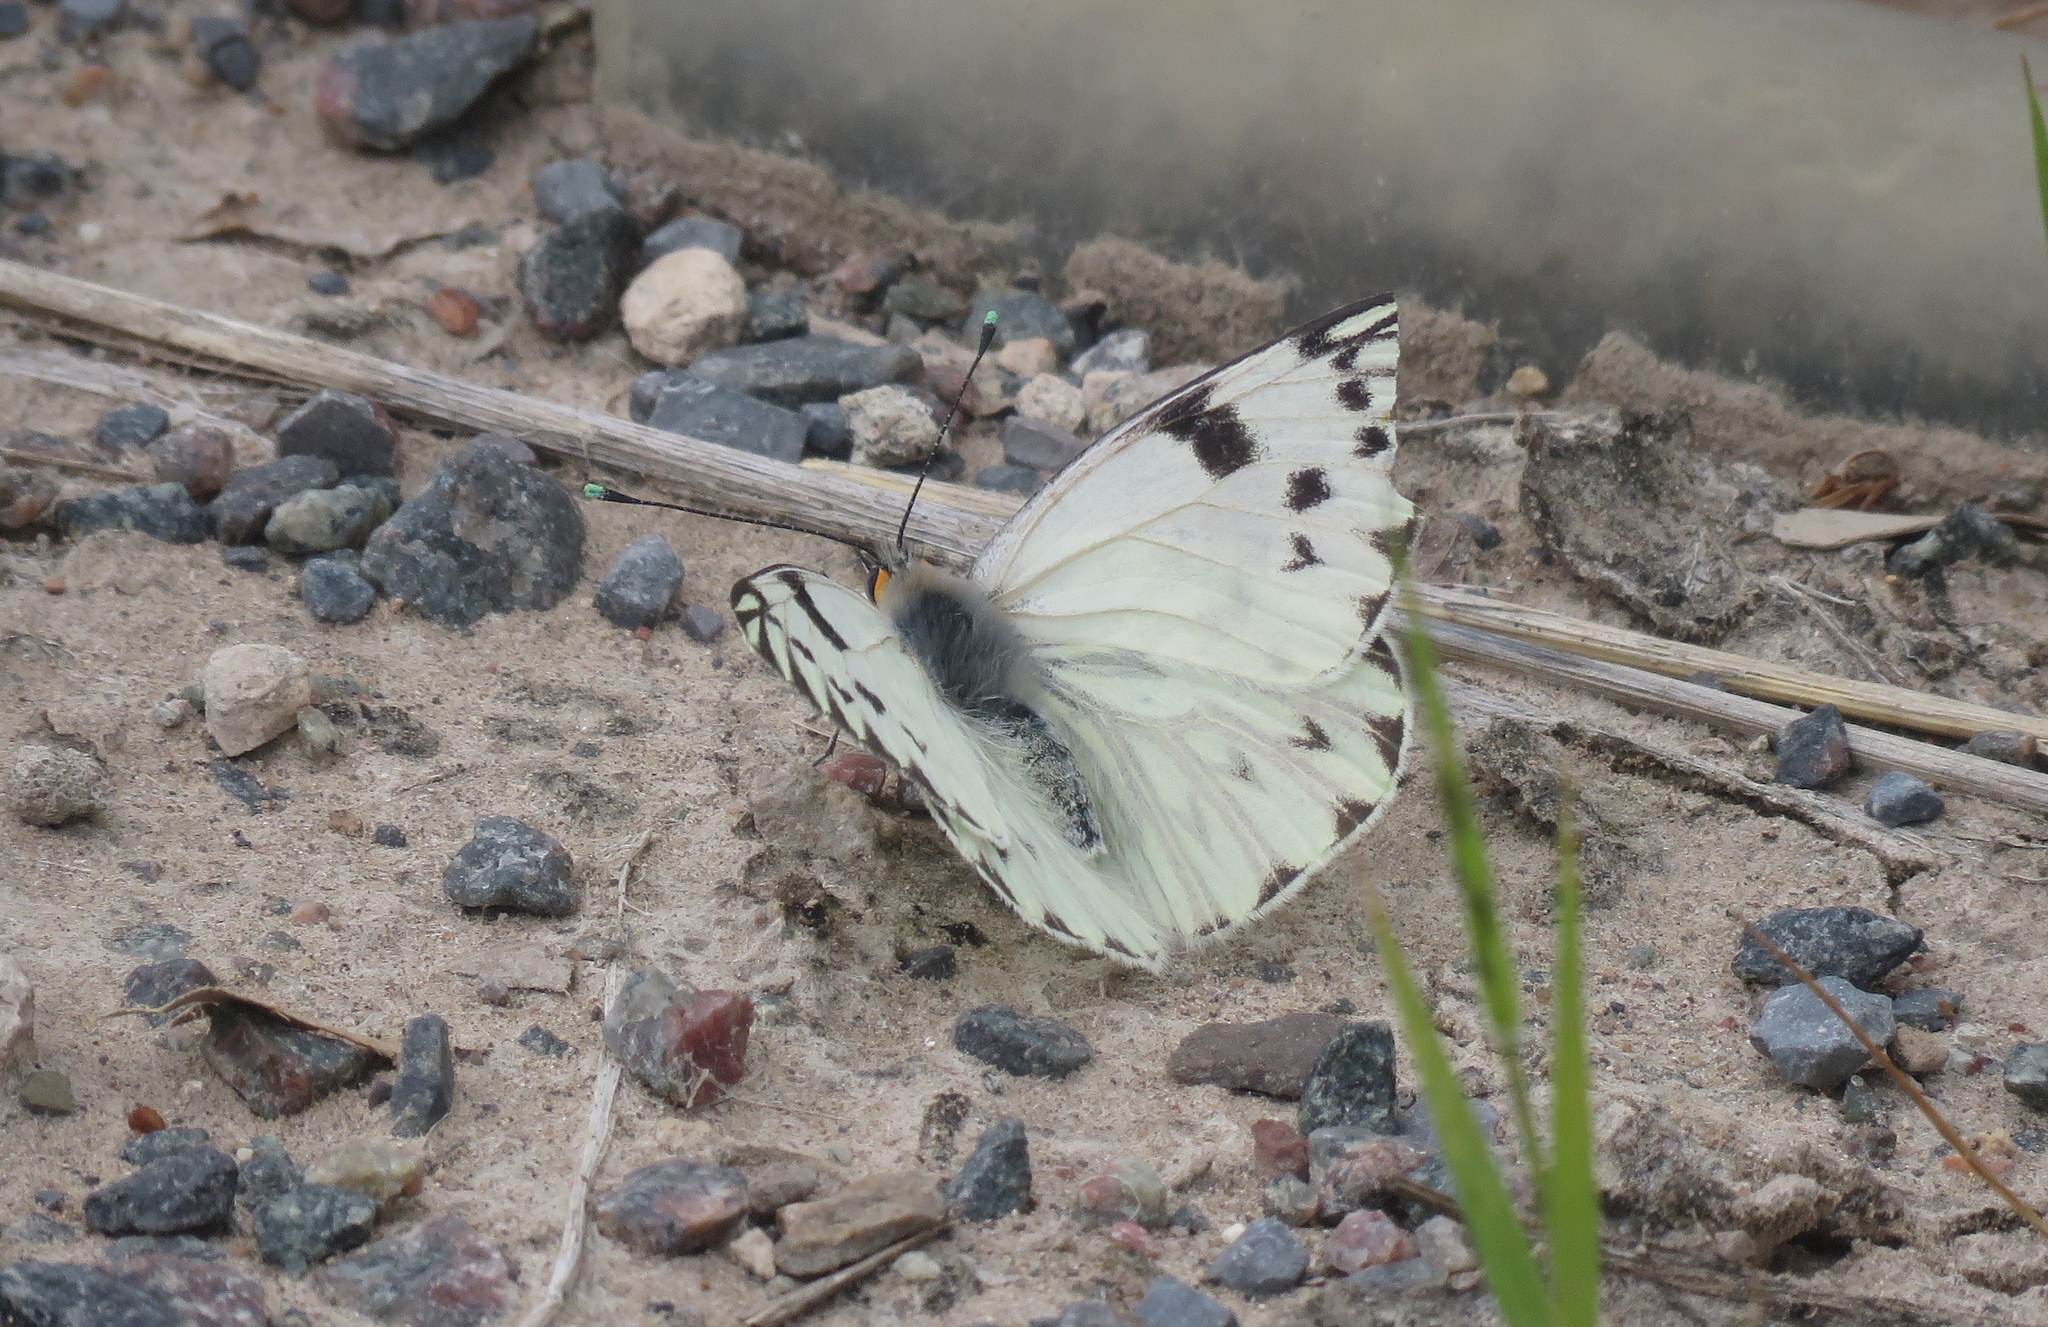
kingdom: Animalia
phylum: Arthropoda
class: Insecta
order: Lepidoptera
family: Pieridae
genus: Tatochila
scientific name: Tatochila autodice
